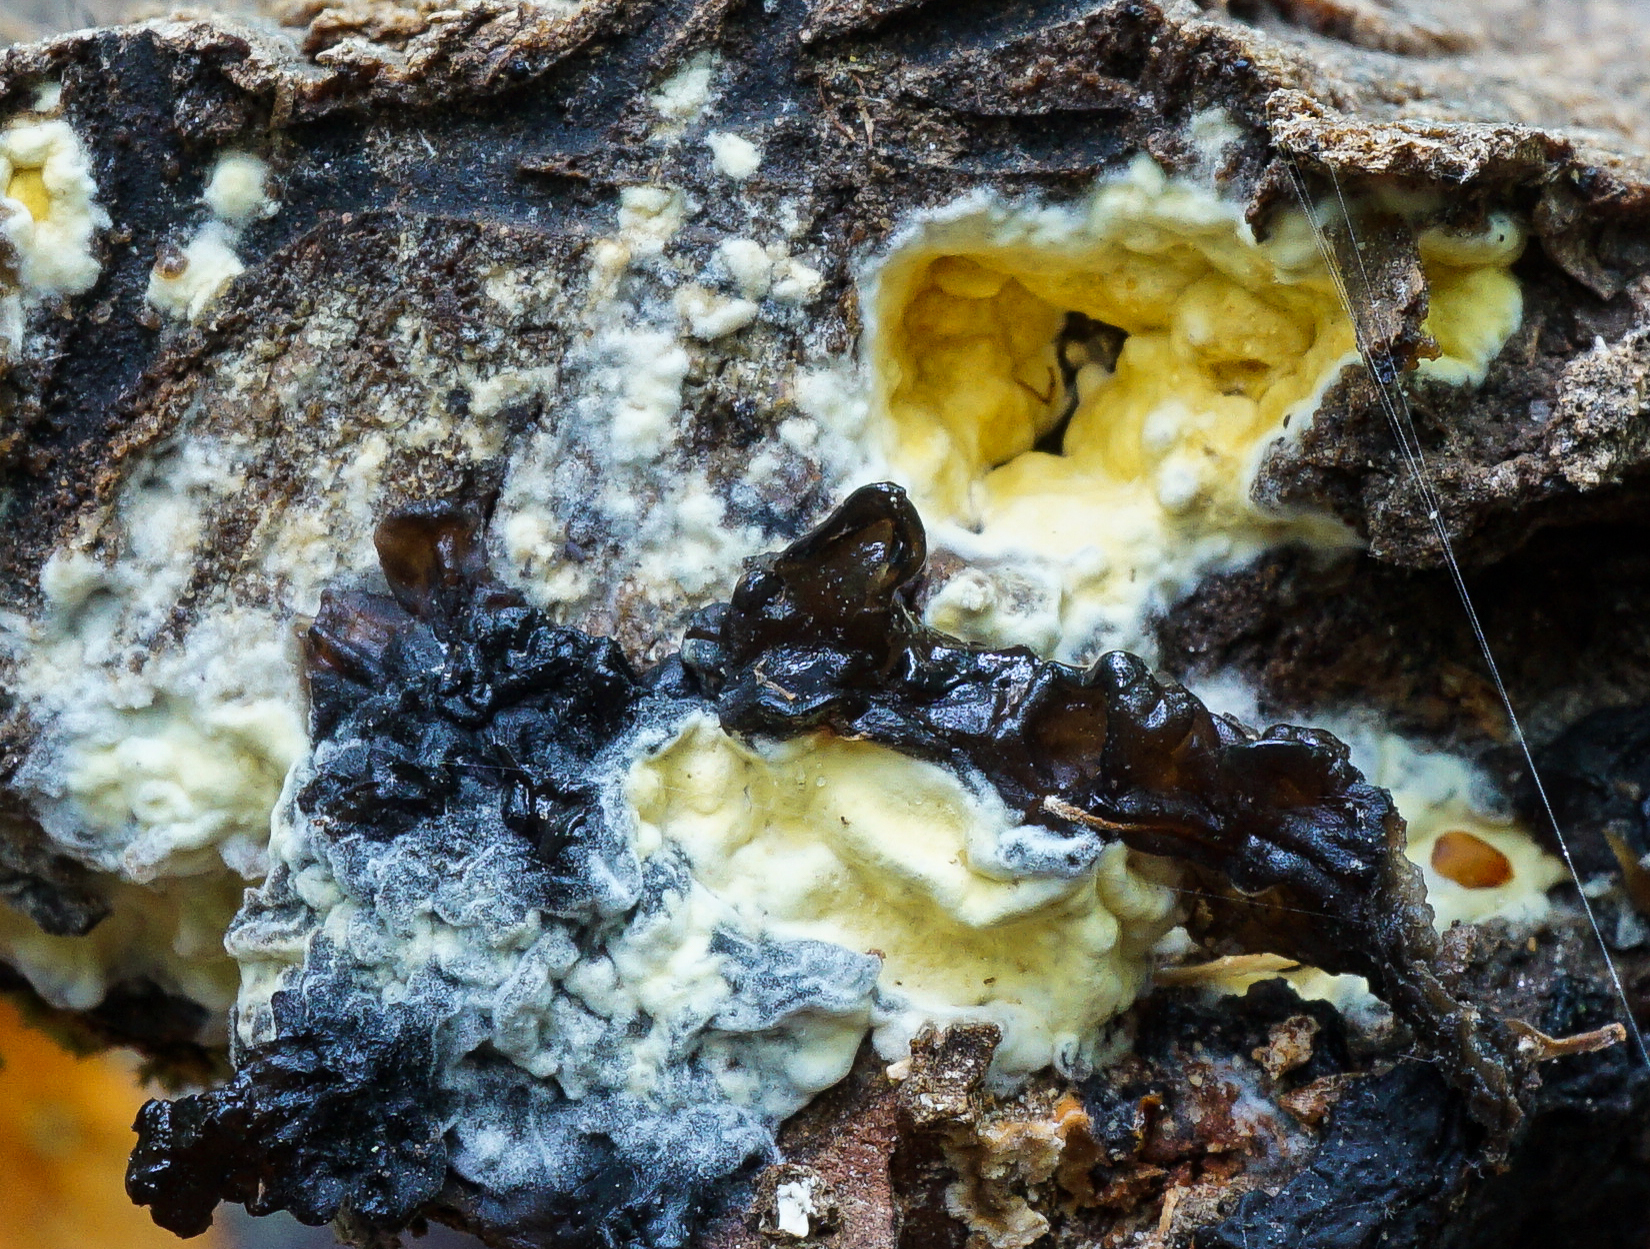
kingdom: Fungi
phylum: Ascomycota
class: Sordariomycetes
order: Hypocreales
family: Hypocreaceae
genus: Trichoderma
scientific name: Trichoderma sulphureum
